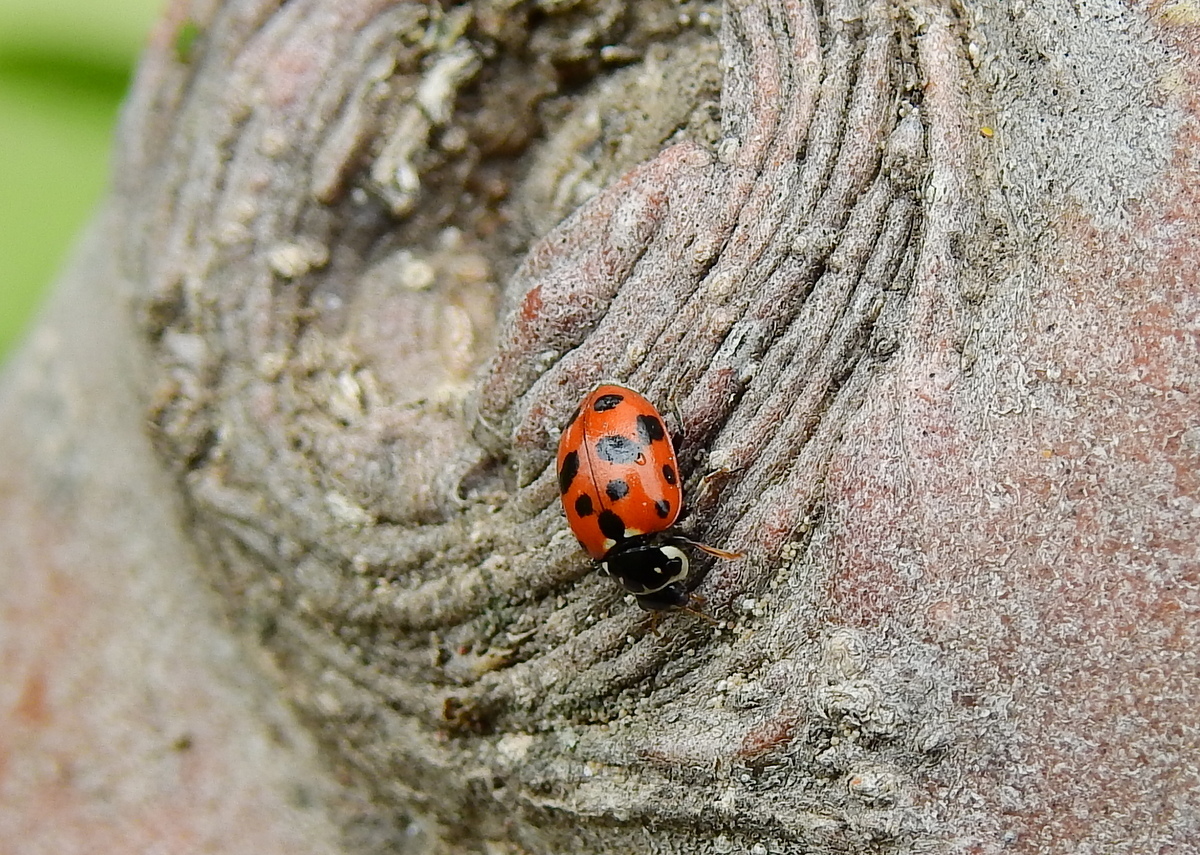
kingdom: Animalia
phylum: Arthropoda
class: Insecta
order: Coleoptera
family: Coccinellidae
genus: Hippodamia
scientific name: Hippodamia variegata
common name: Ladybird beetle
